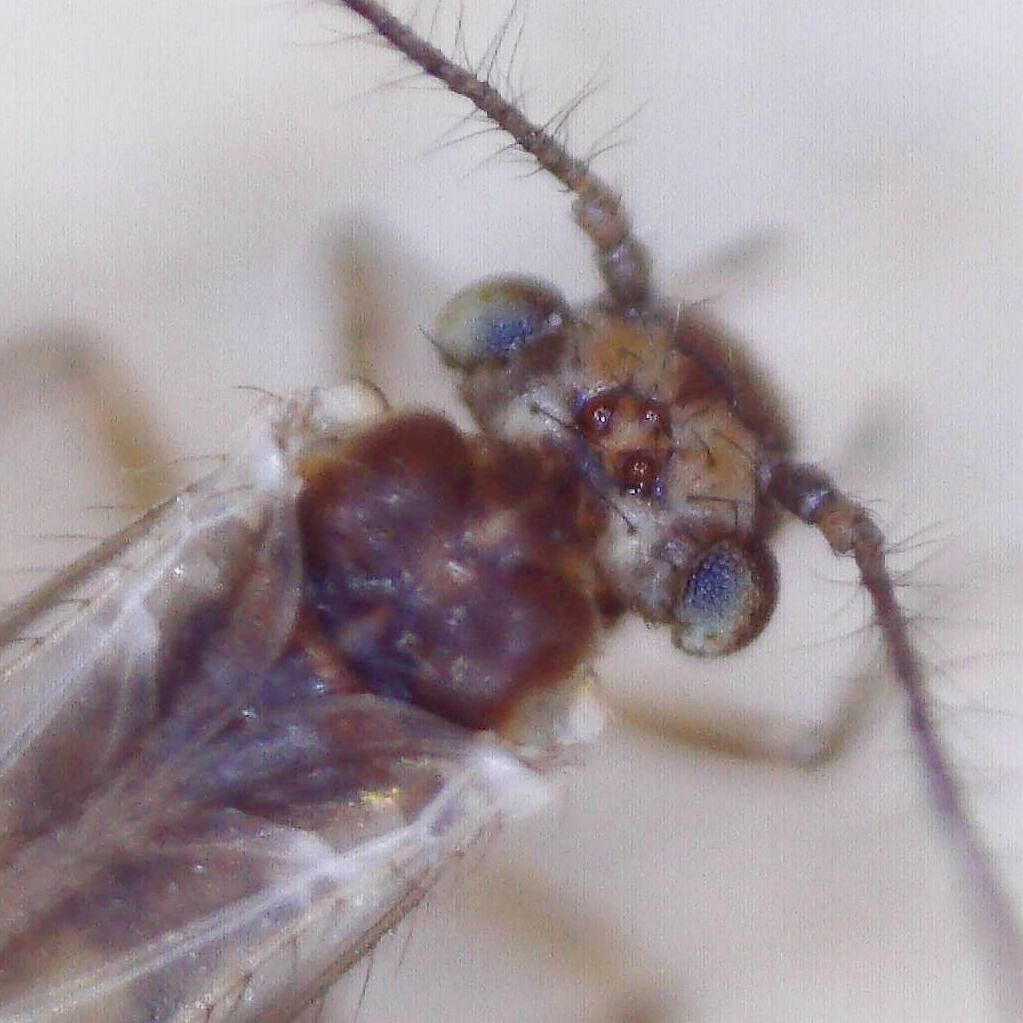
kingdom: Animalia
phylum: Arthropoda
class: Insecta
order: Psocodea
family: Trichopsocidae
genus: Trichopsocus
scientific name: Trichopsocus brincki
